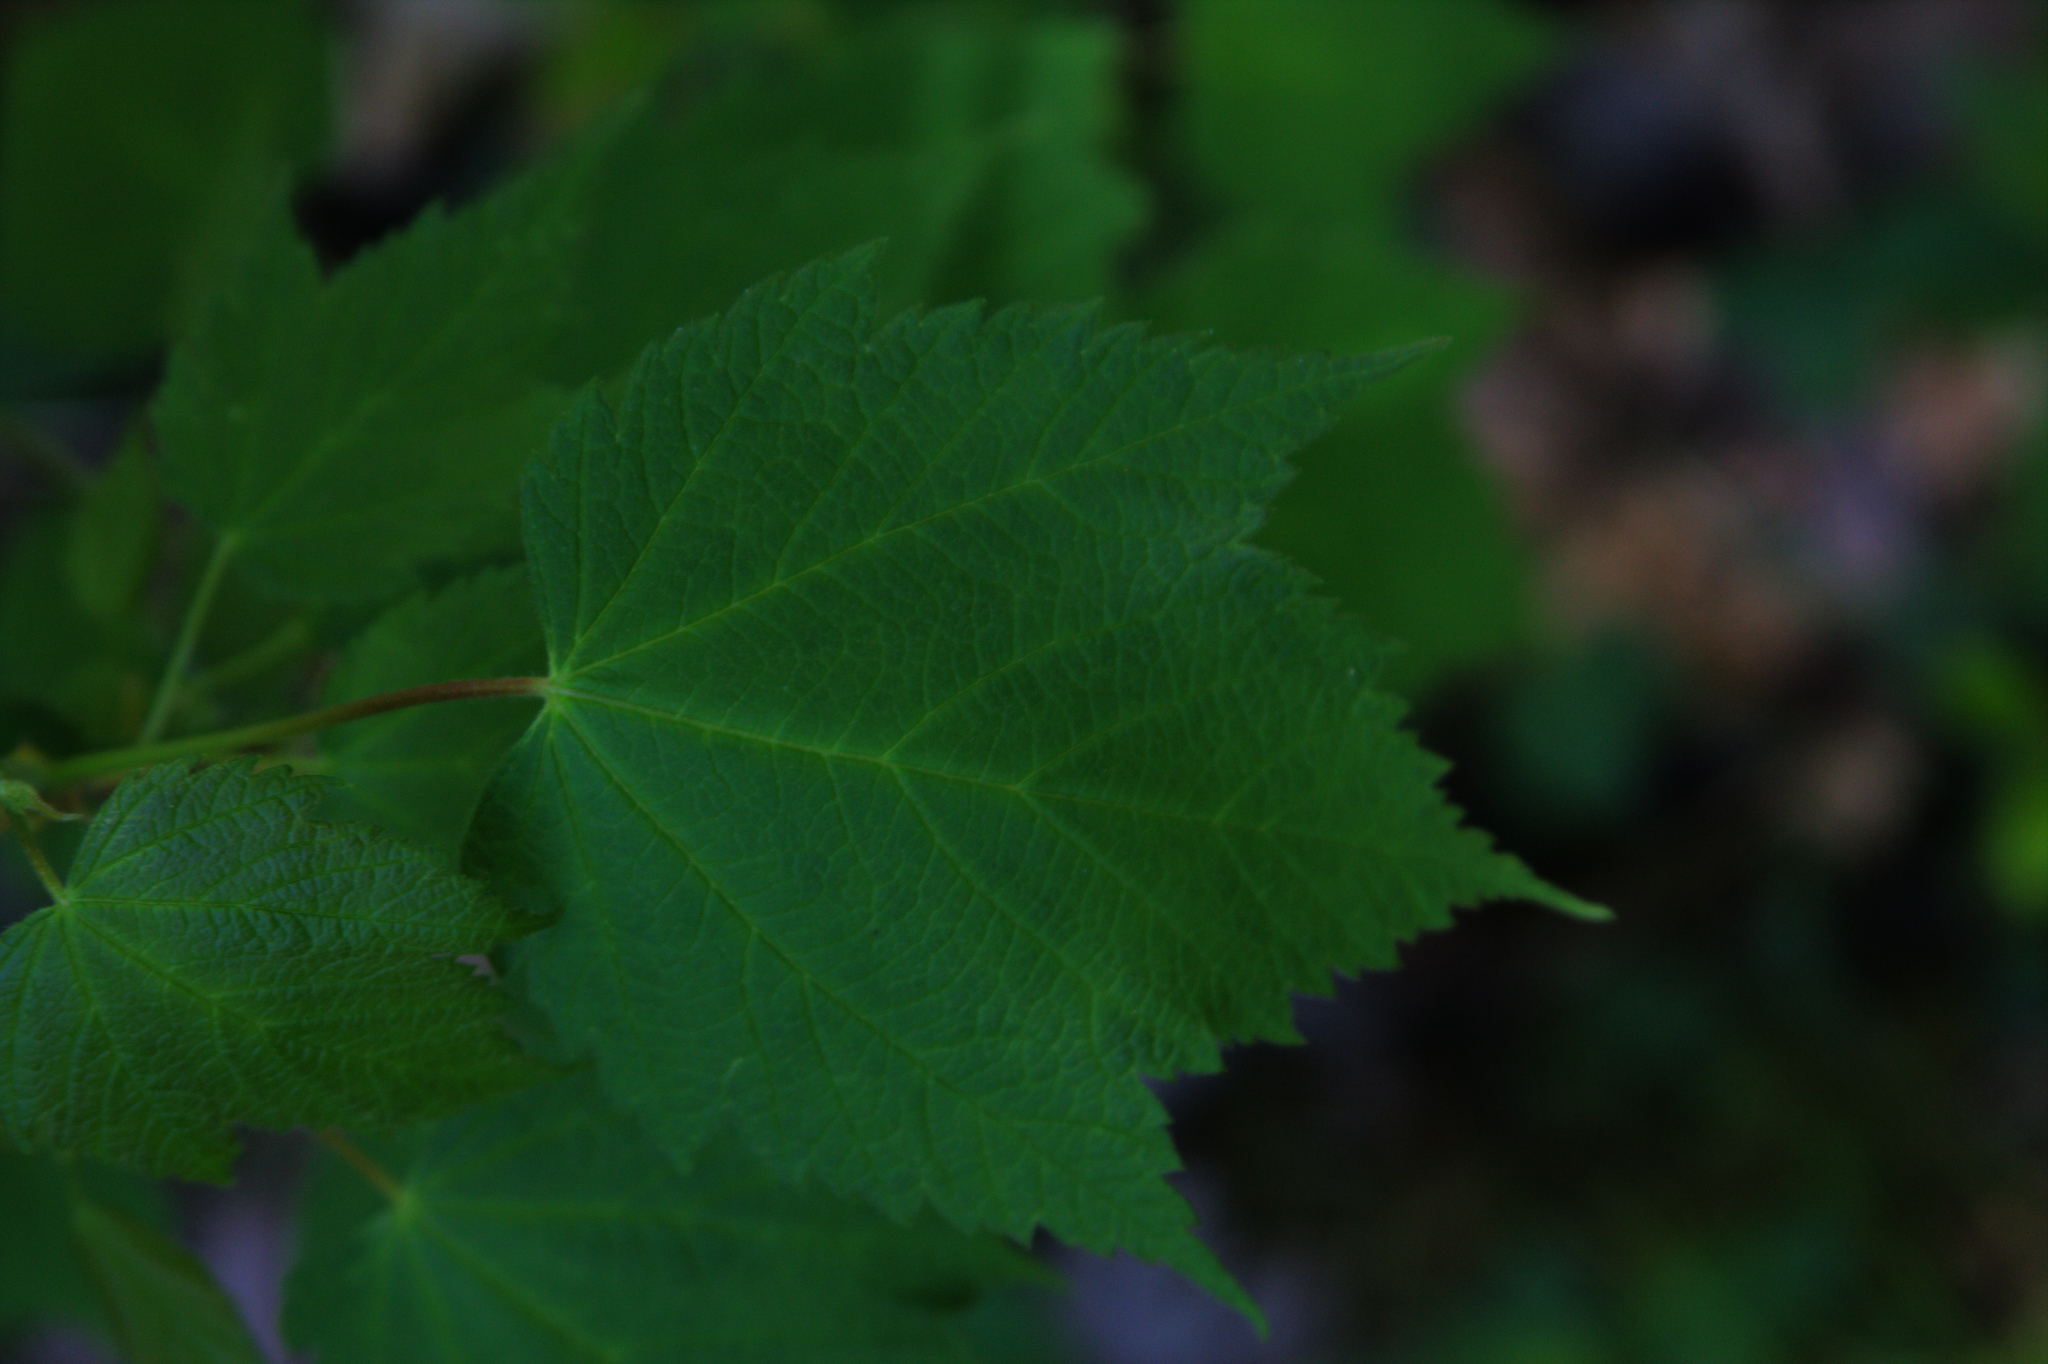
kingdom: Plantae
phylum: Tracheophyta
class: Magnoliopsida
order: Dipsacales
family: Viburnaceae
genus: Viburnum
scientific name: Viburnum acerifolium
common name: Dockmackie
